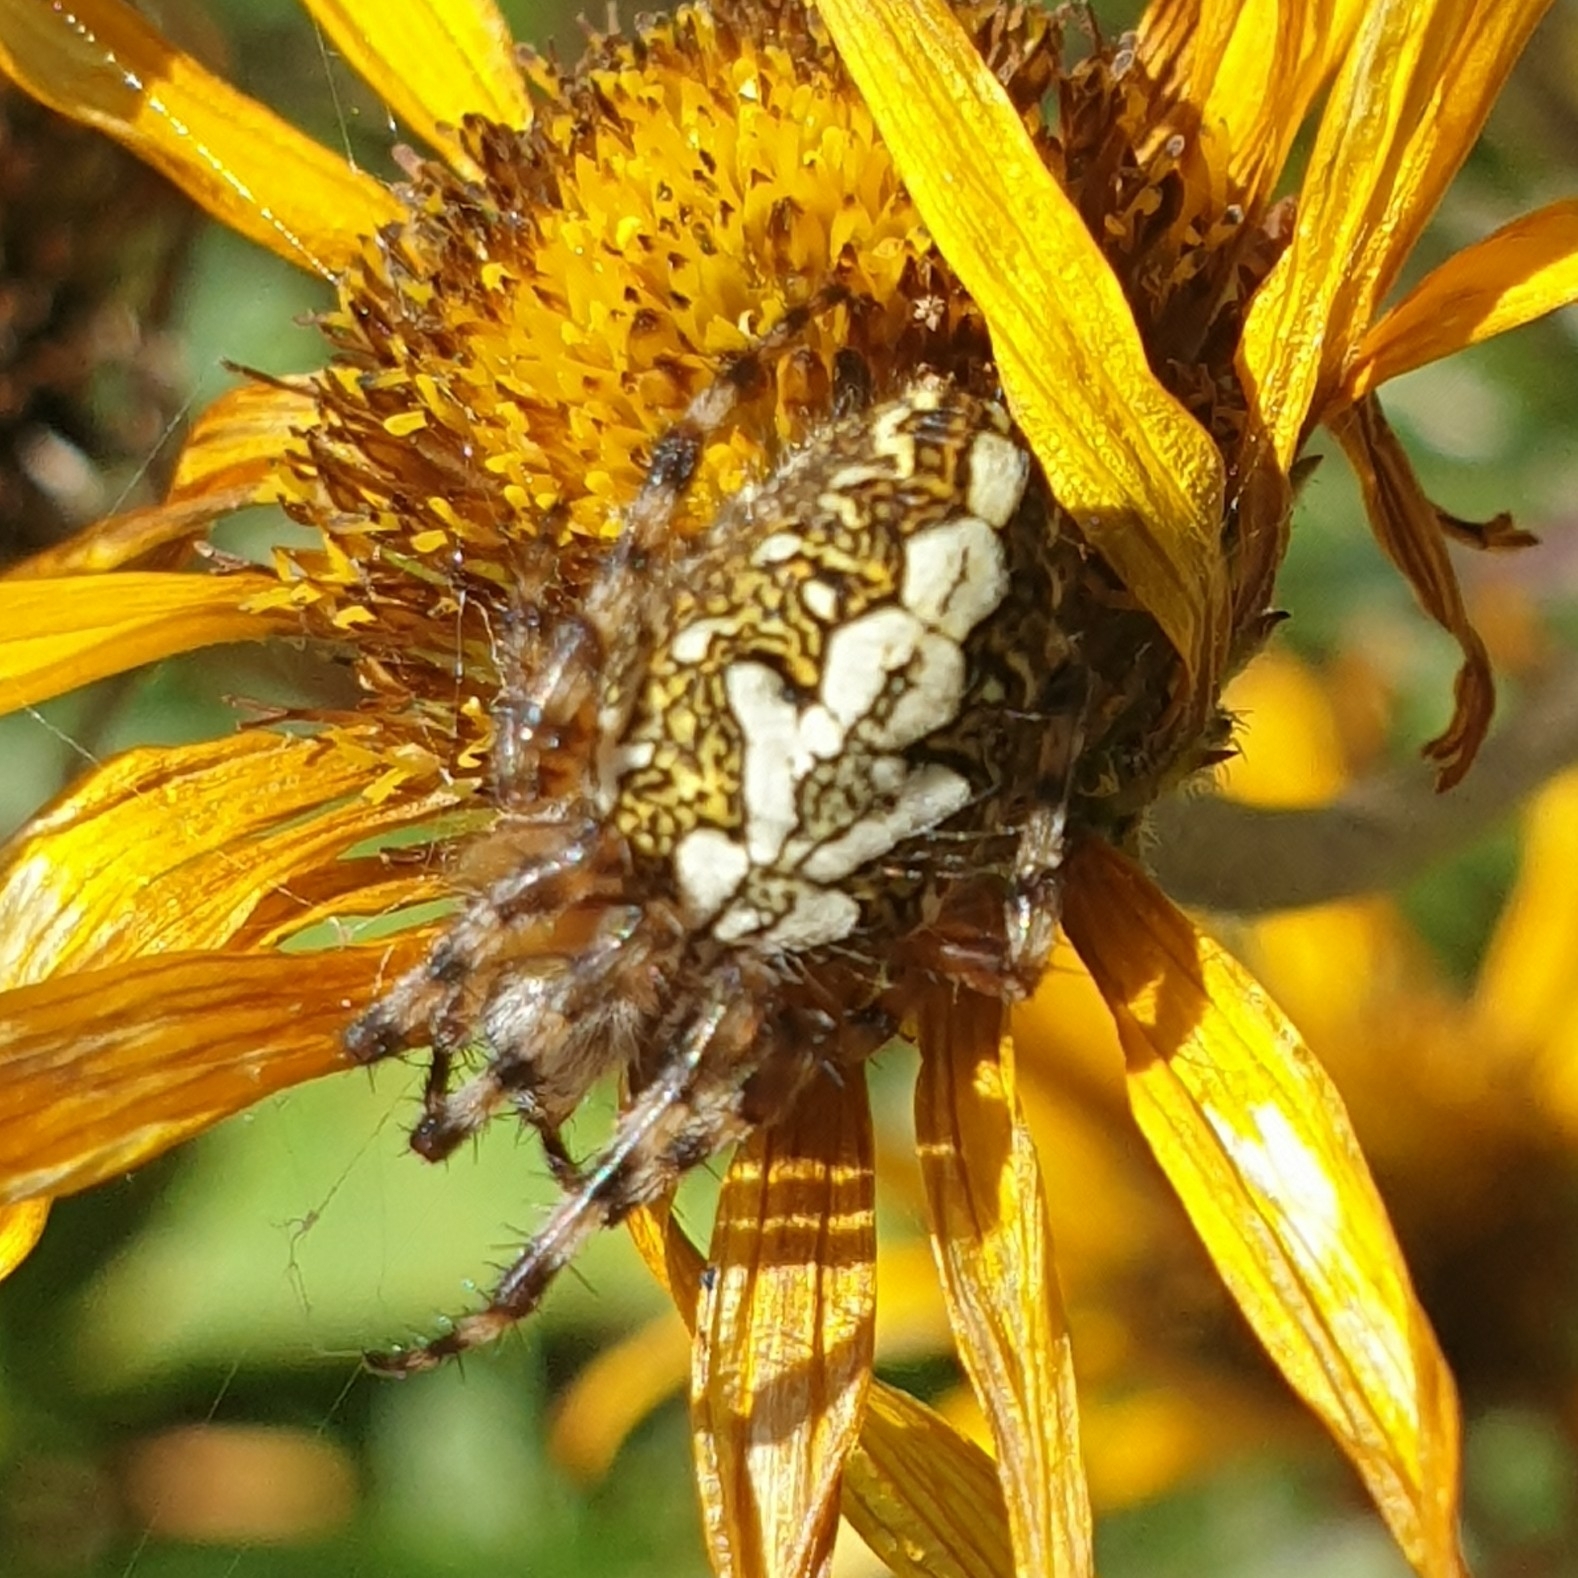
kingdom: Animalia
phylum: Arthropoda
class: Arachnida
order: Araneae
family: Araneidae
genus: Aculepeira
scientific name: Aculepeira ceropegia
